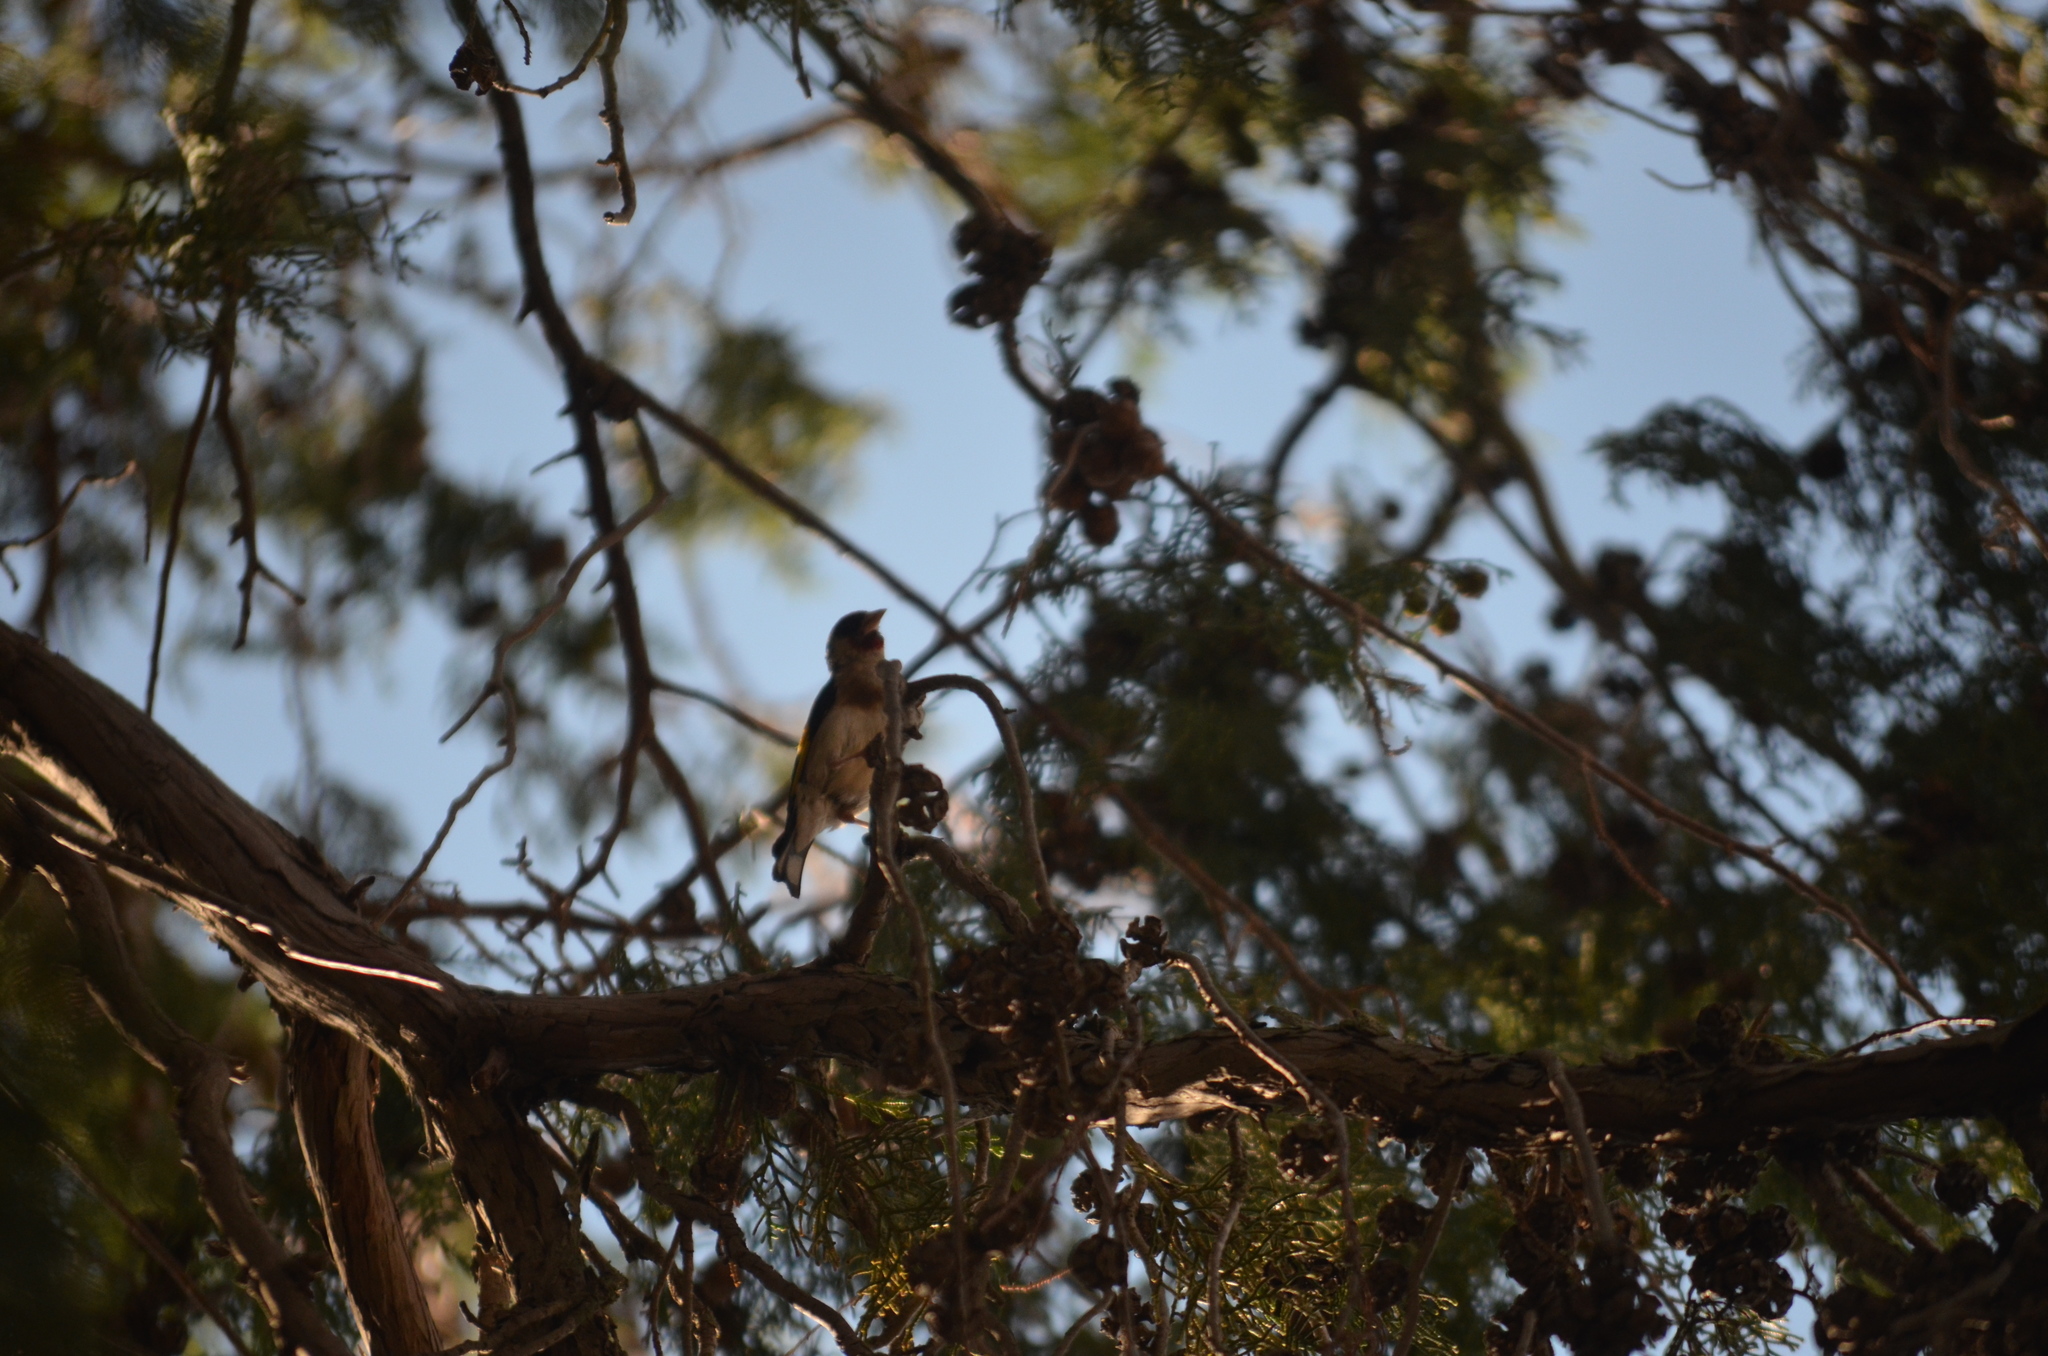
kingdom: Animalia
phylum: Chordata
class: Aves
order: Passeriformes
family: Fringillidae
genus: Carduelis
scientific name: Carduelis carduelis
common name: European goldfinch
